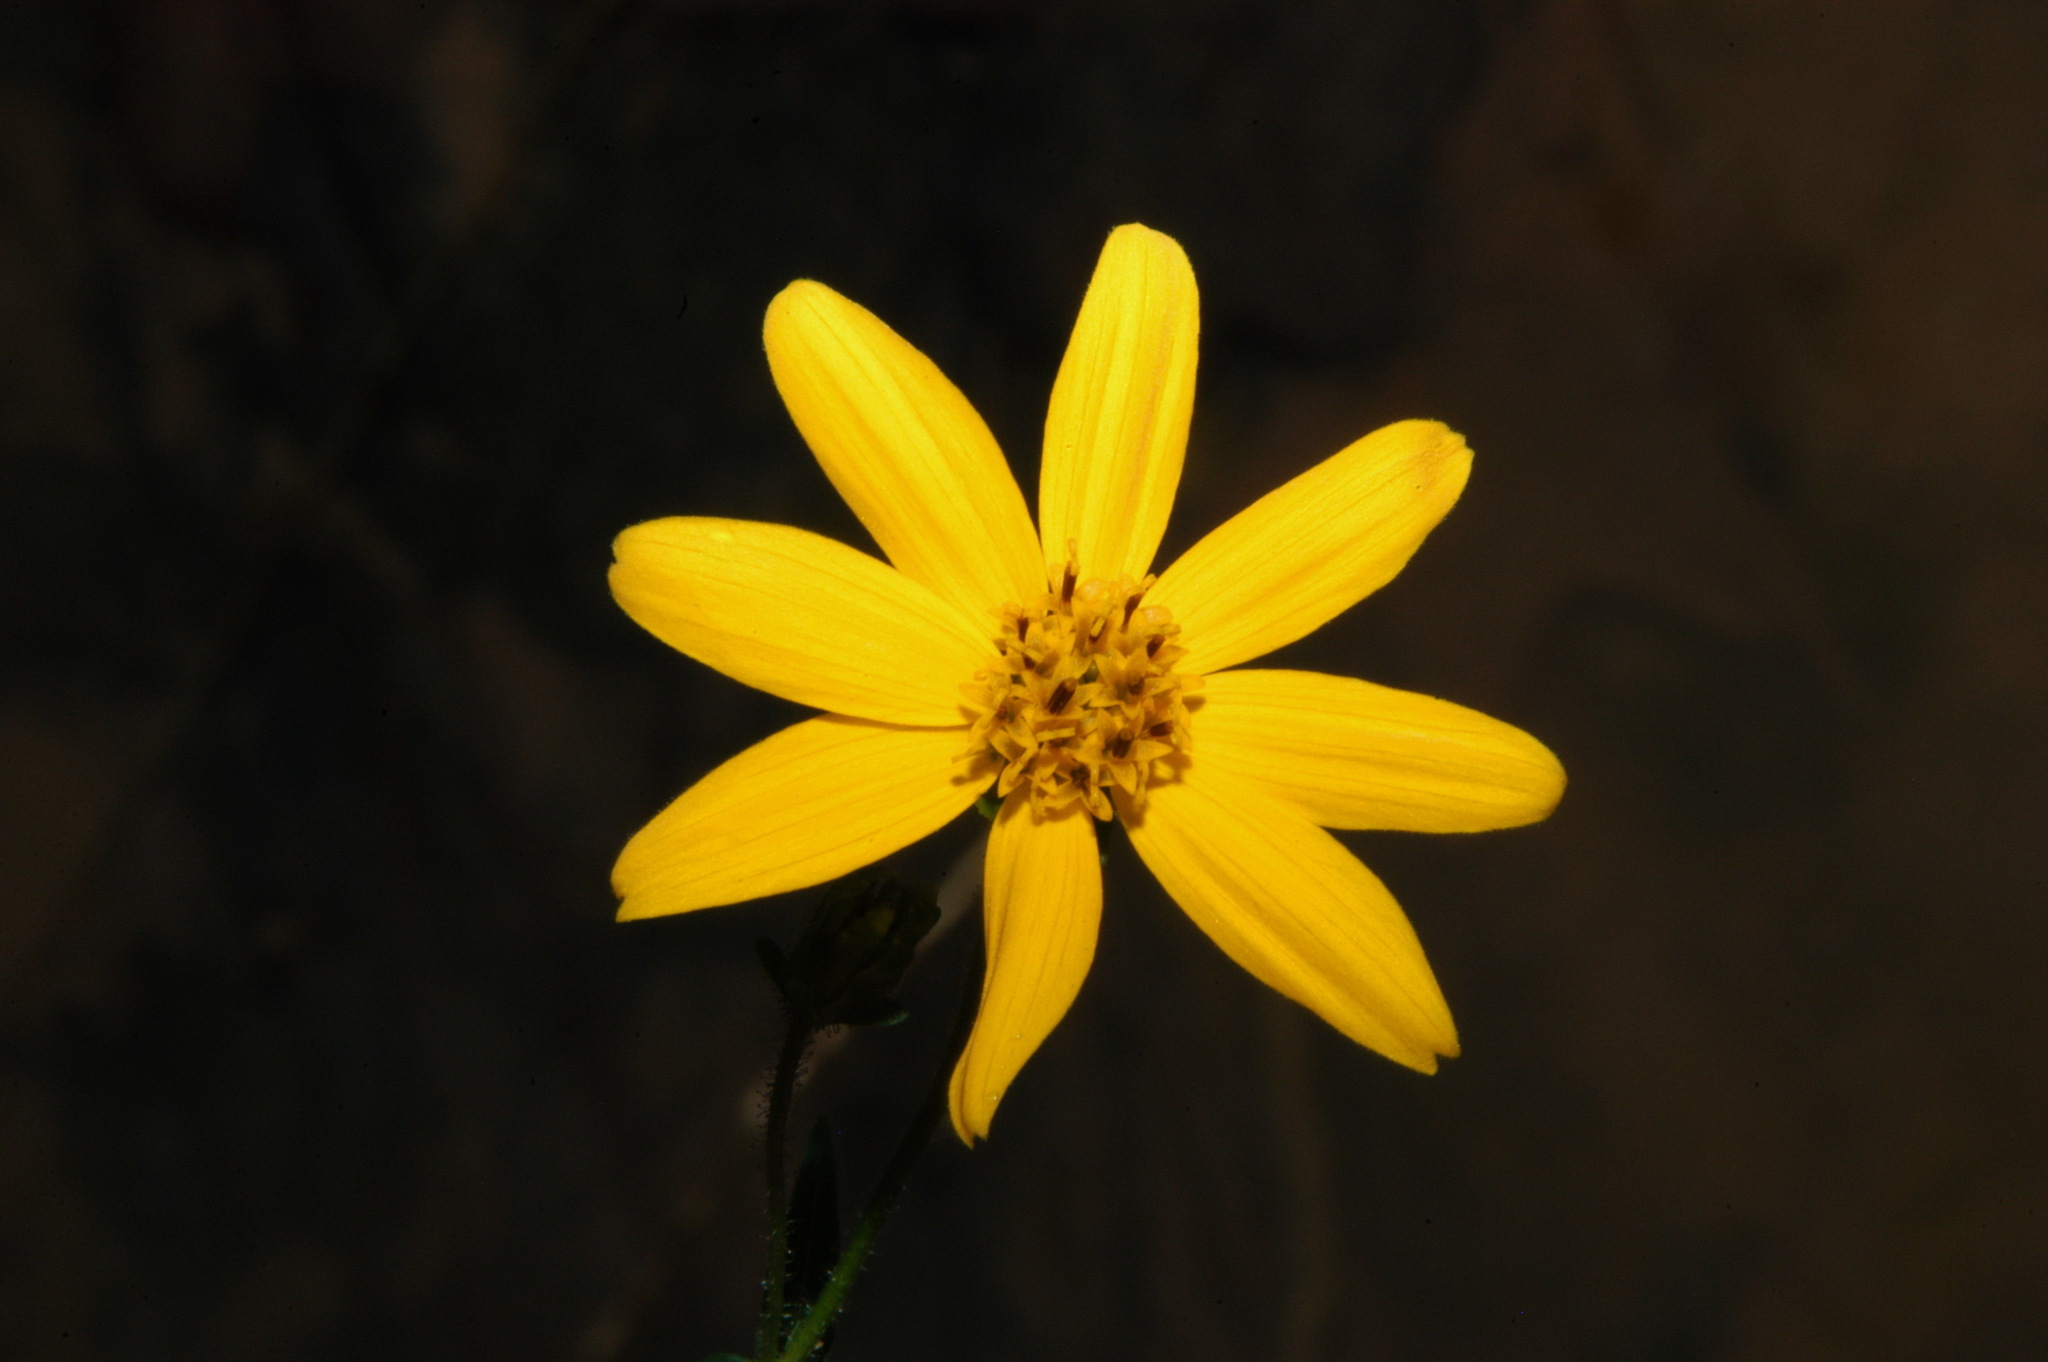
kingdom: Plantae
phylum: Tracheophyta
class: Magnoliopsida
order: Asterales
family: Asteraceae
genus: Jamesianthus
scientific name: Jamesianthus alabamensis
